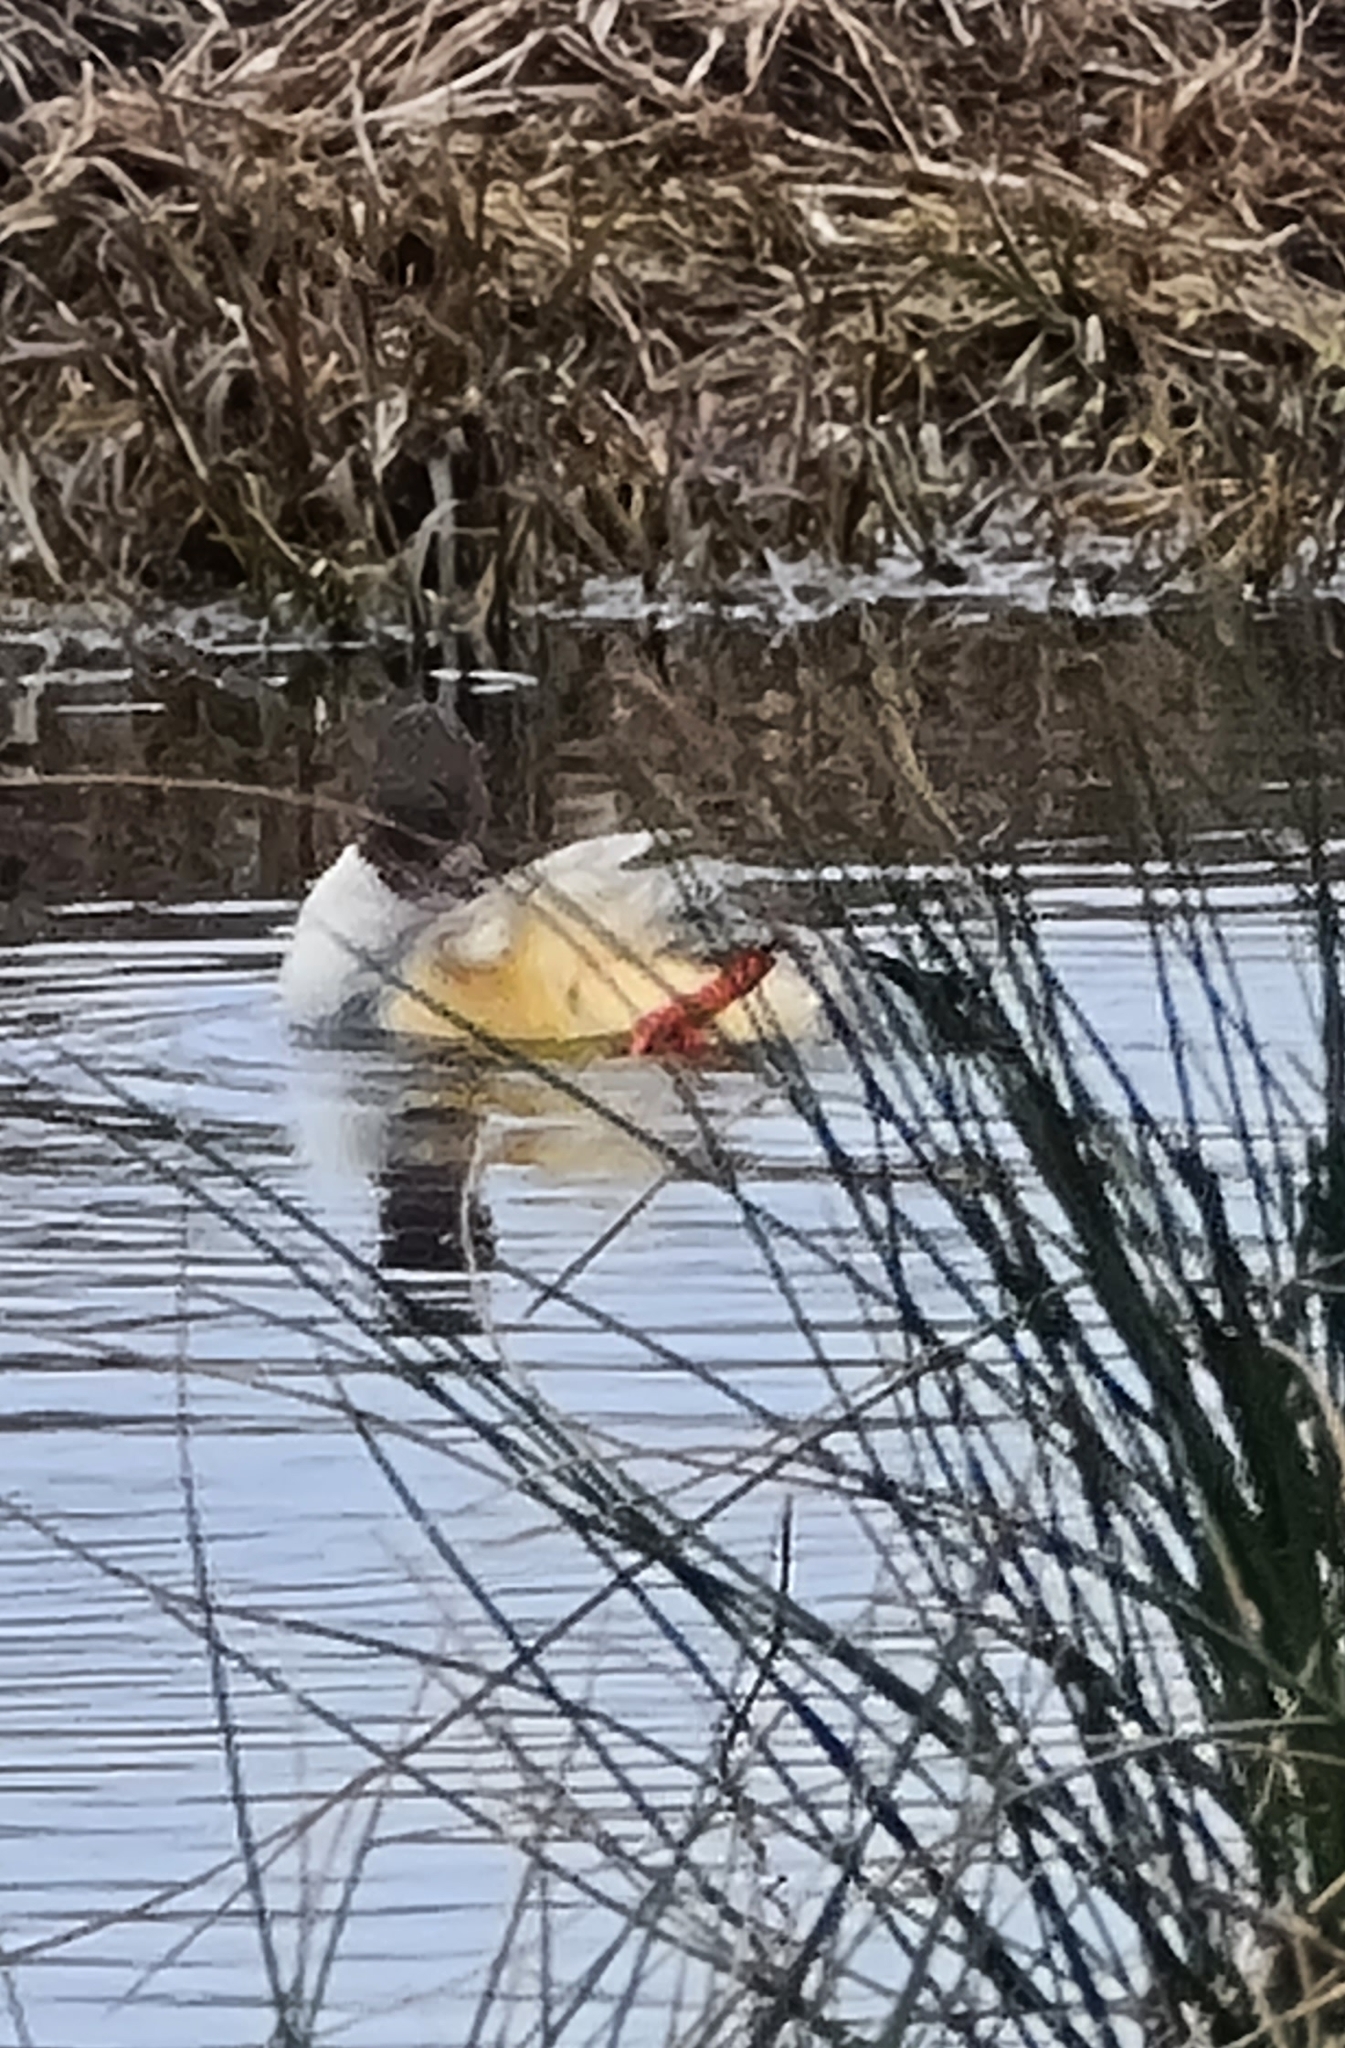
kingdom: Animalia
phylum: Chordata
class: Aves
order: Anseriformes
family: Anatidae
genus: Mergus
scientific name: Mergus merganser
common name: Common merganser
